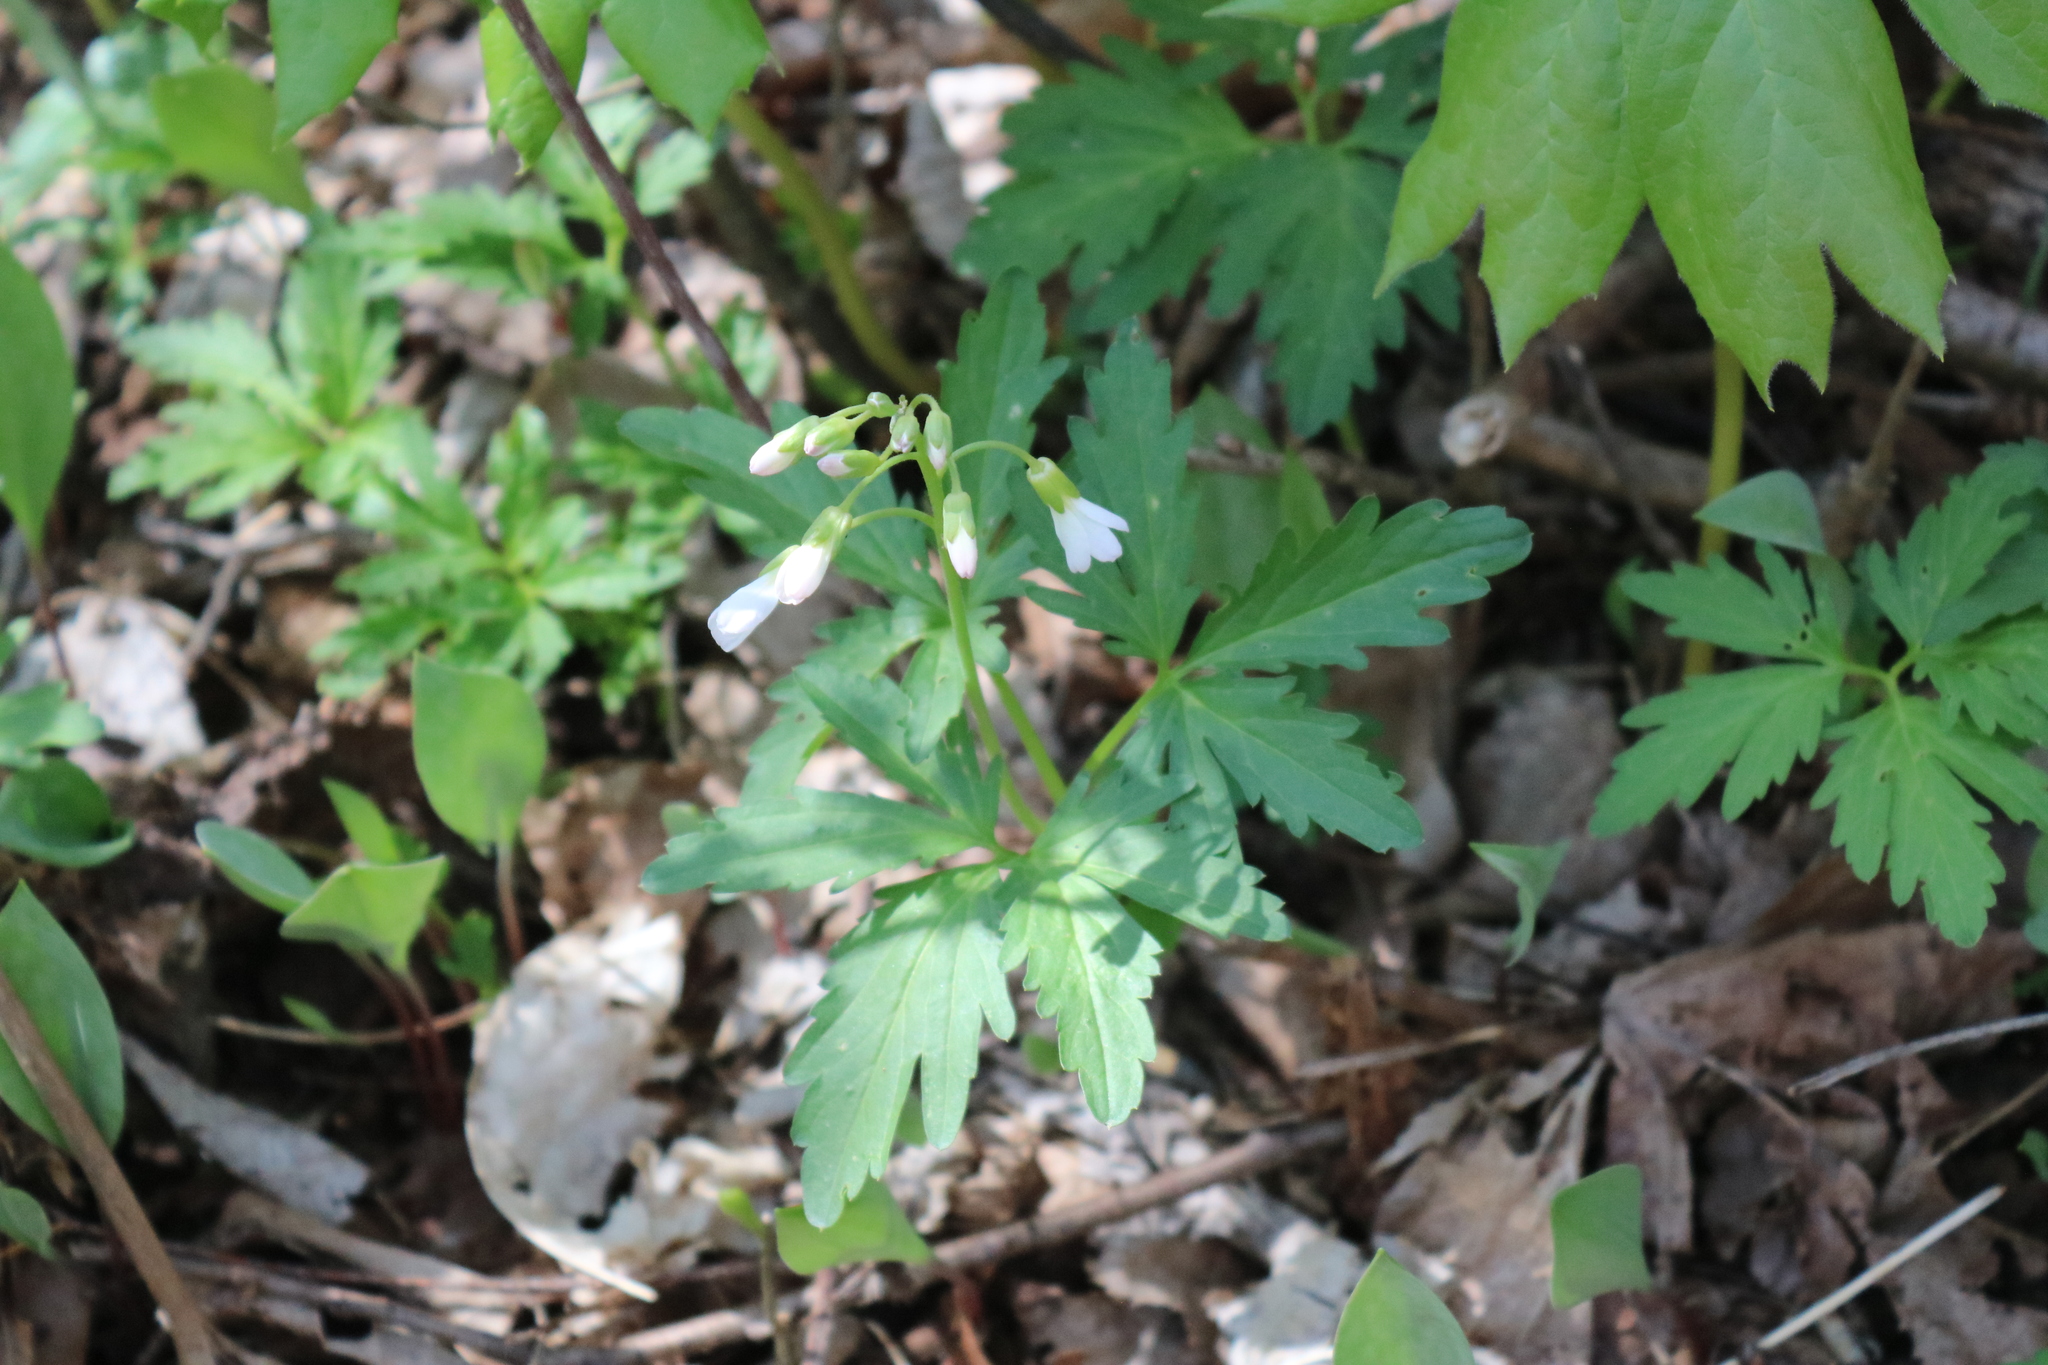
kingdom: Plantae
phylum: Tracheophyta
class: Magnoliopsida
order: Brassicales
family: Brassicaceae
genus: Cardamine
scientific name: Cardamine concatenata
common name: Cut-leaf toothcup
